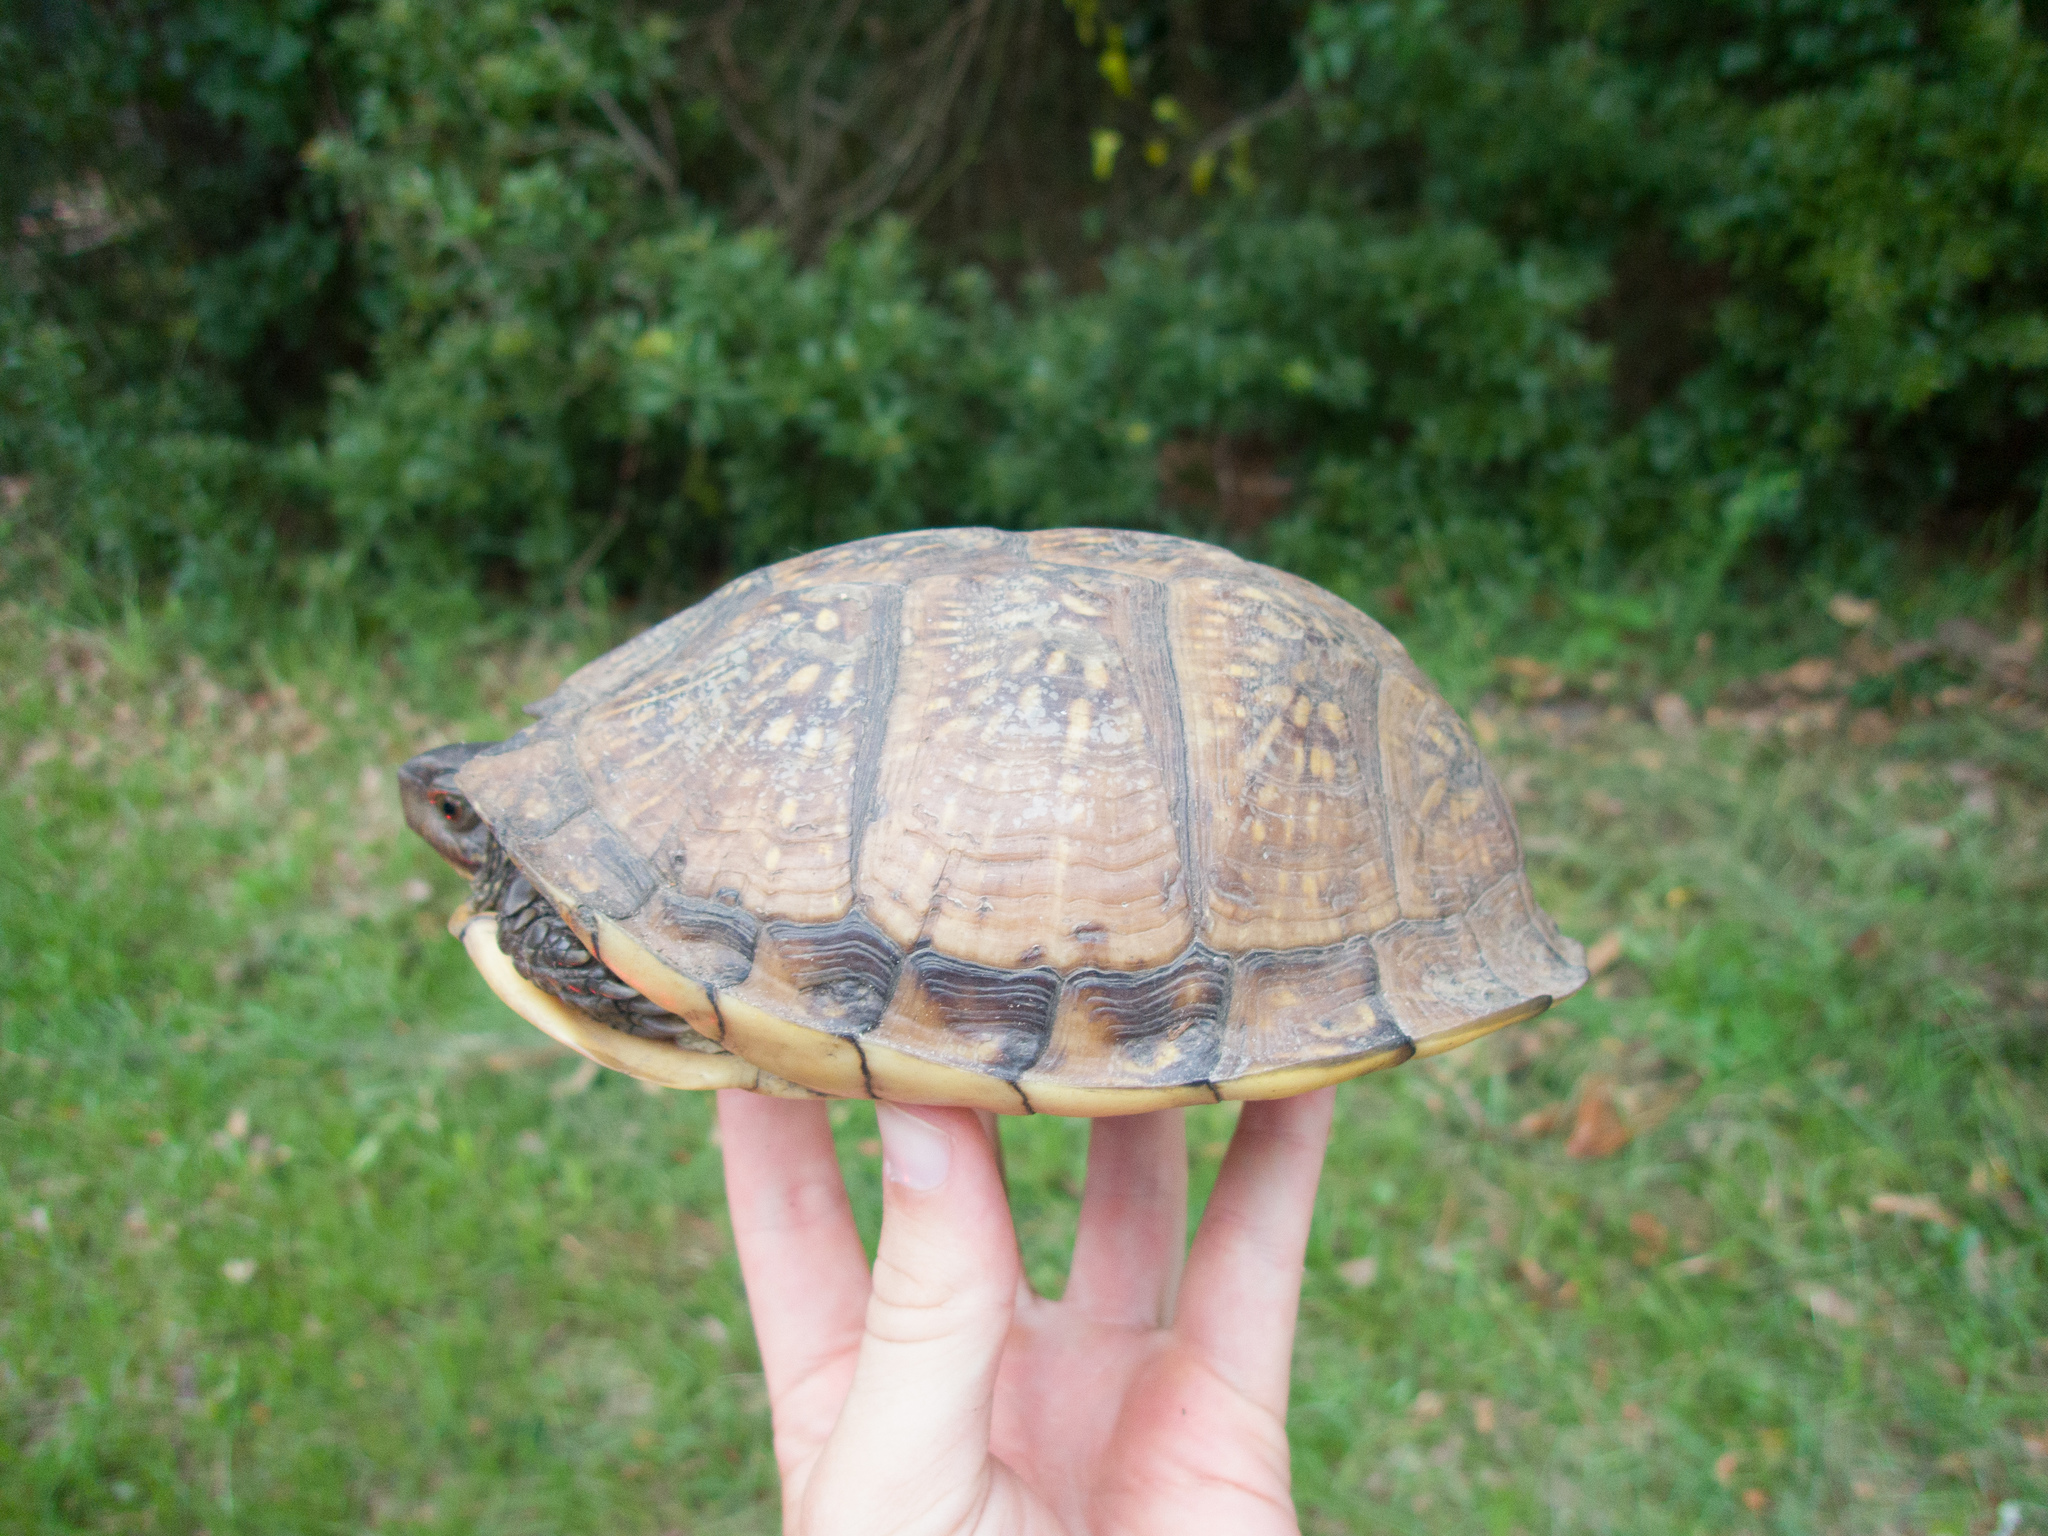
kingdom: Animalia
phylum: Chordata
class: Testudines
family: Emydidae
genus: Terrapene
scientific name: Terrapene carolina
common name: Common box turtle
